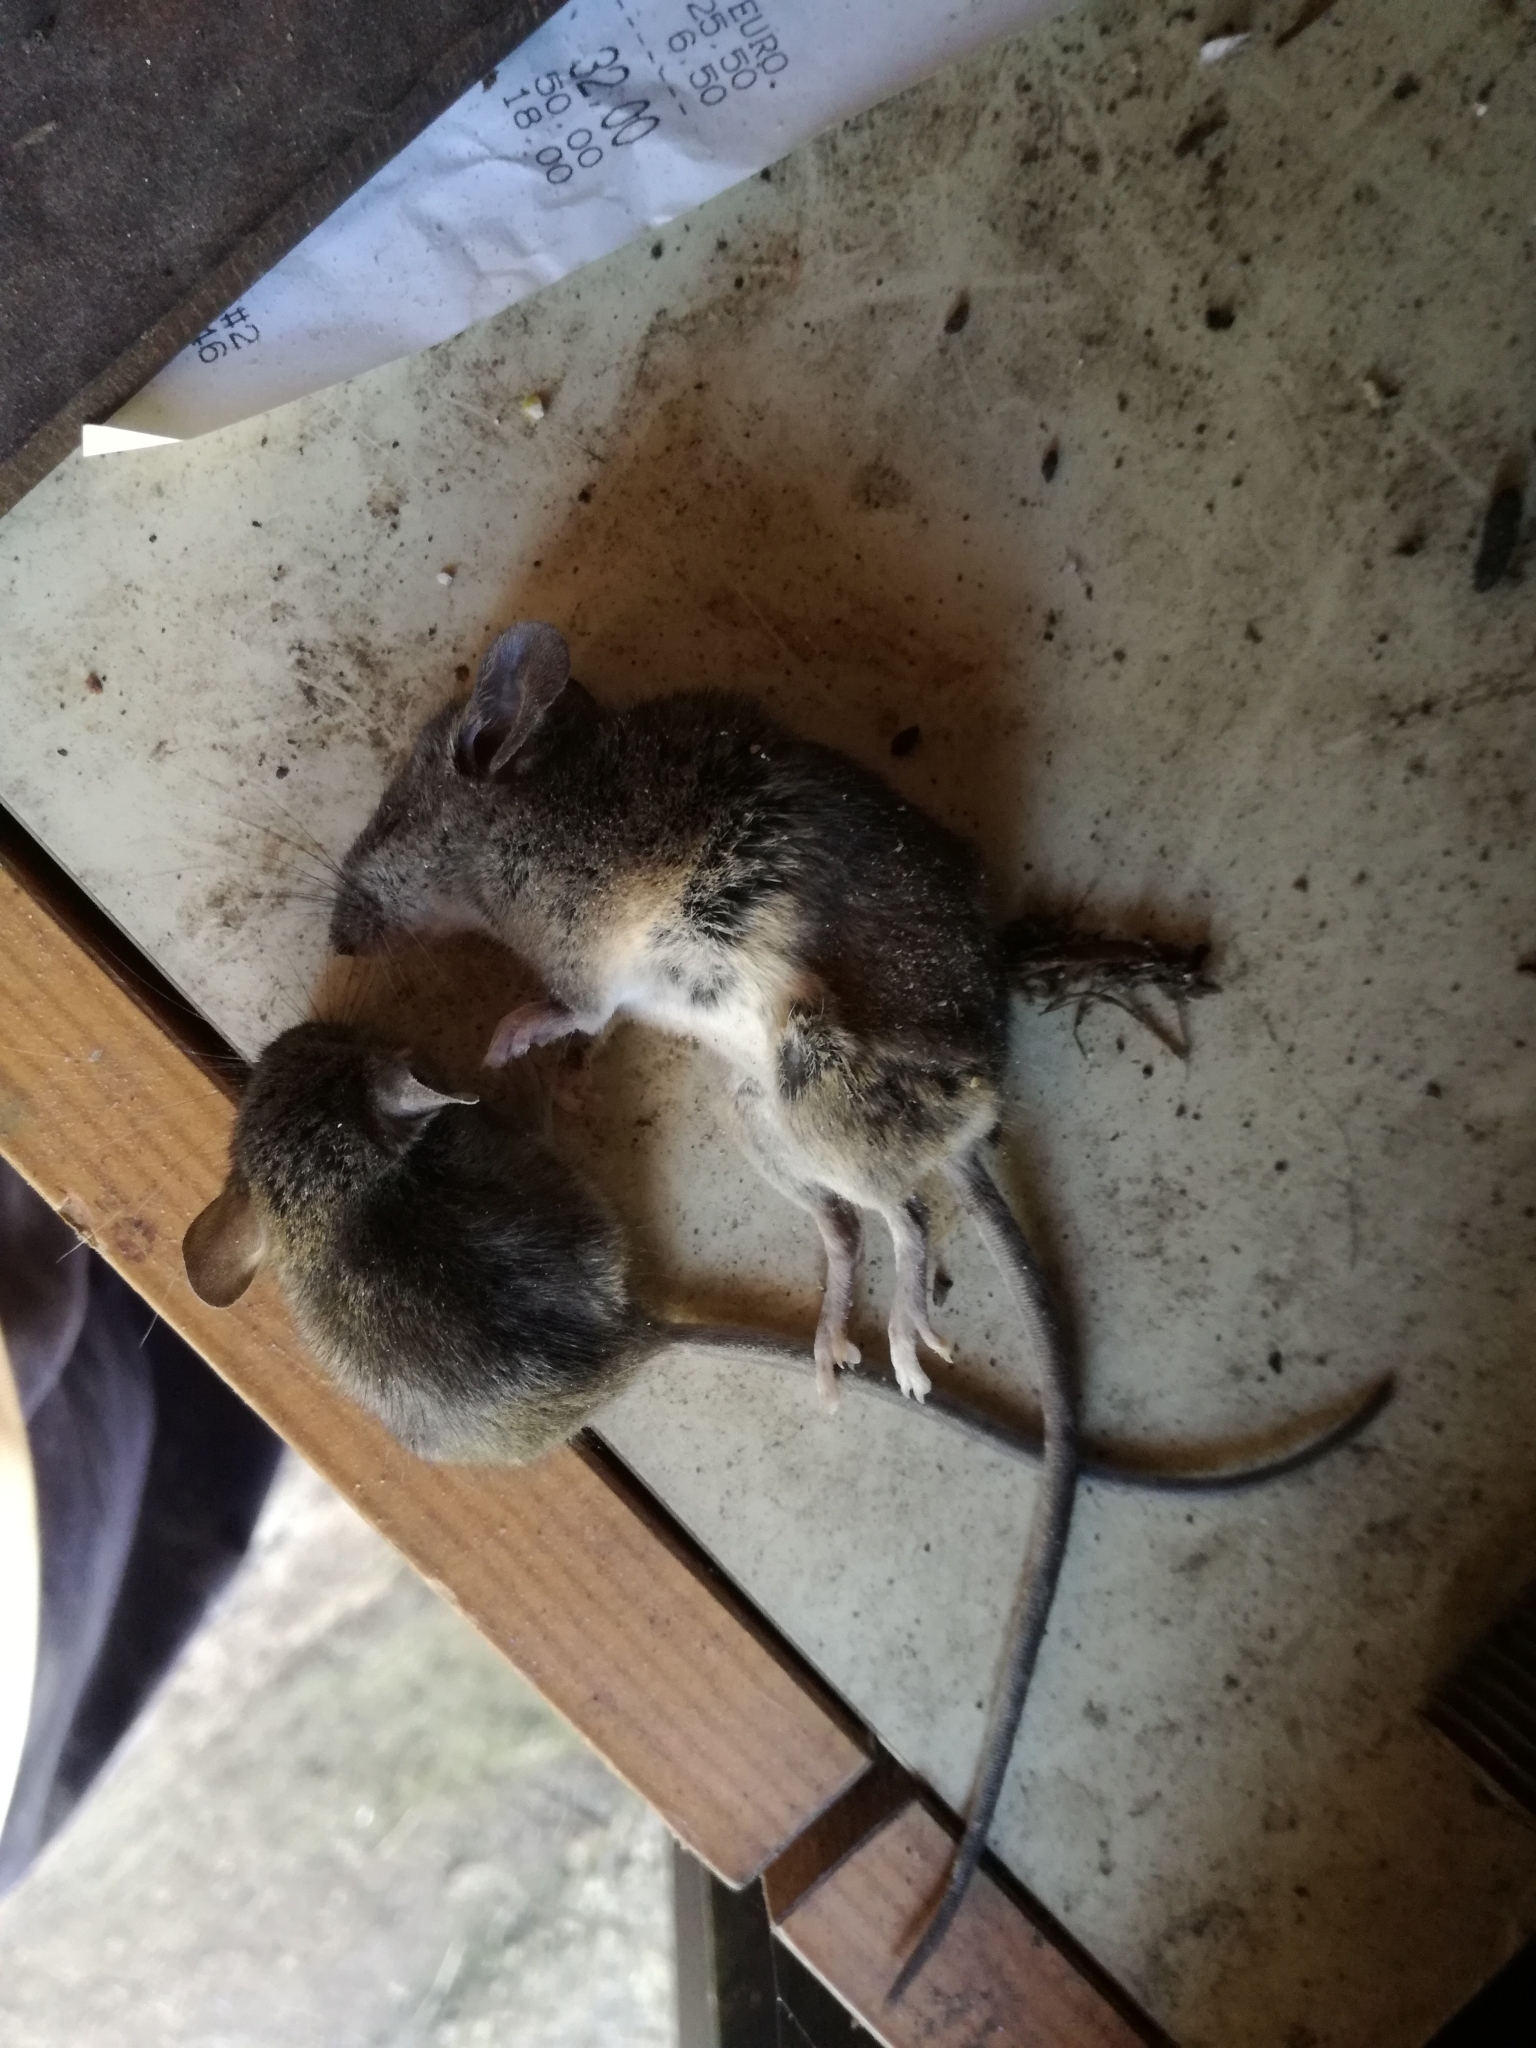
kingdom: Animalia
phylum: Chordata
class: Mammalia
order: Rodentia
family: Muridae
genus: Mus
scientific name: Mus musculus
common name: House mouse
